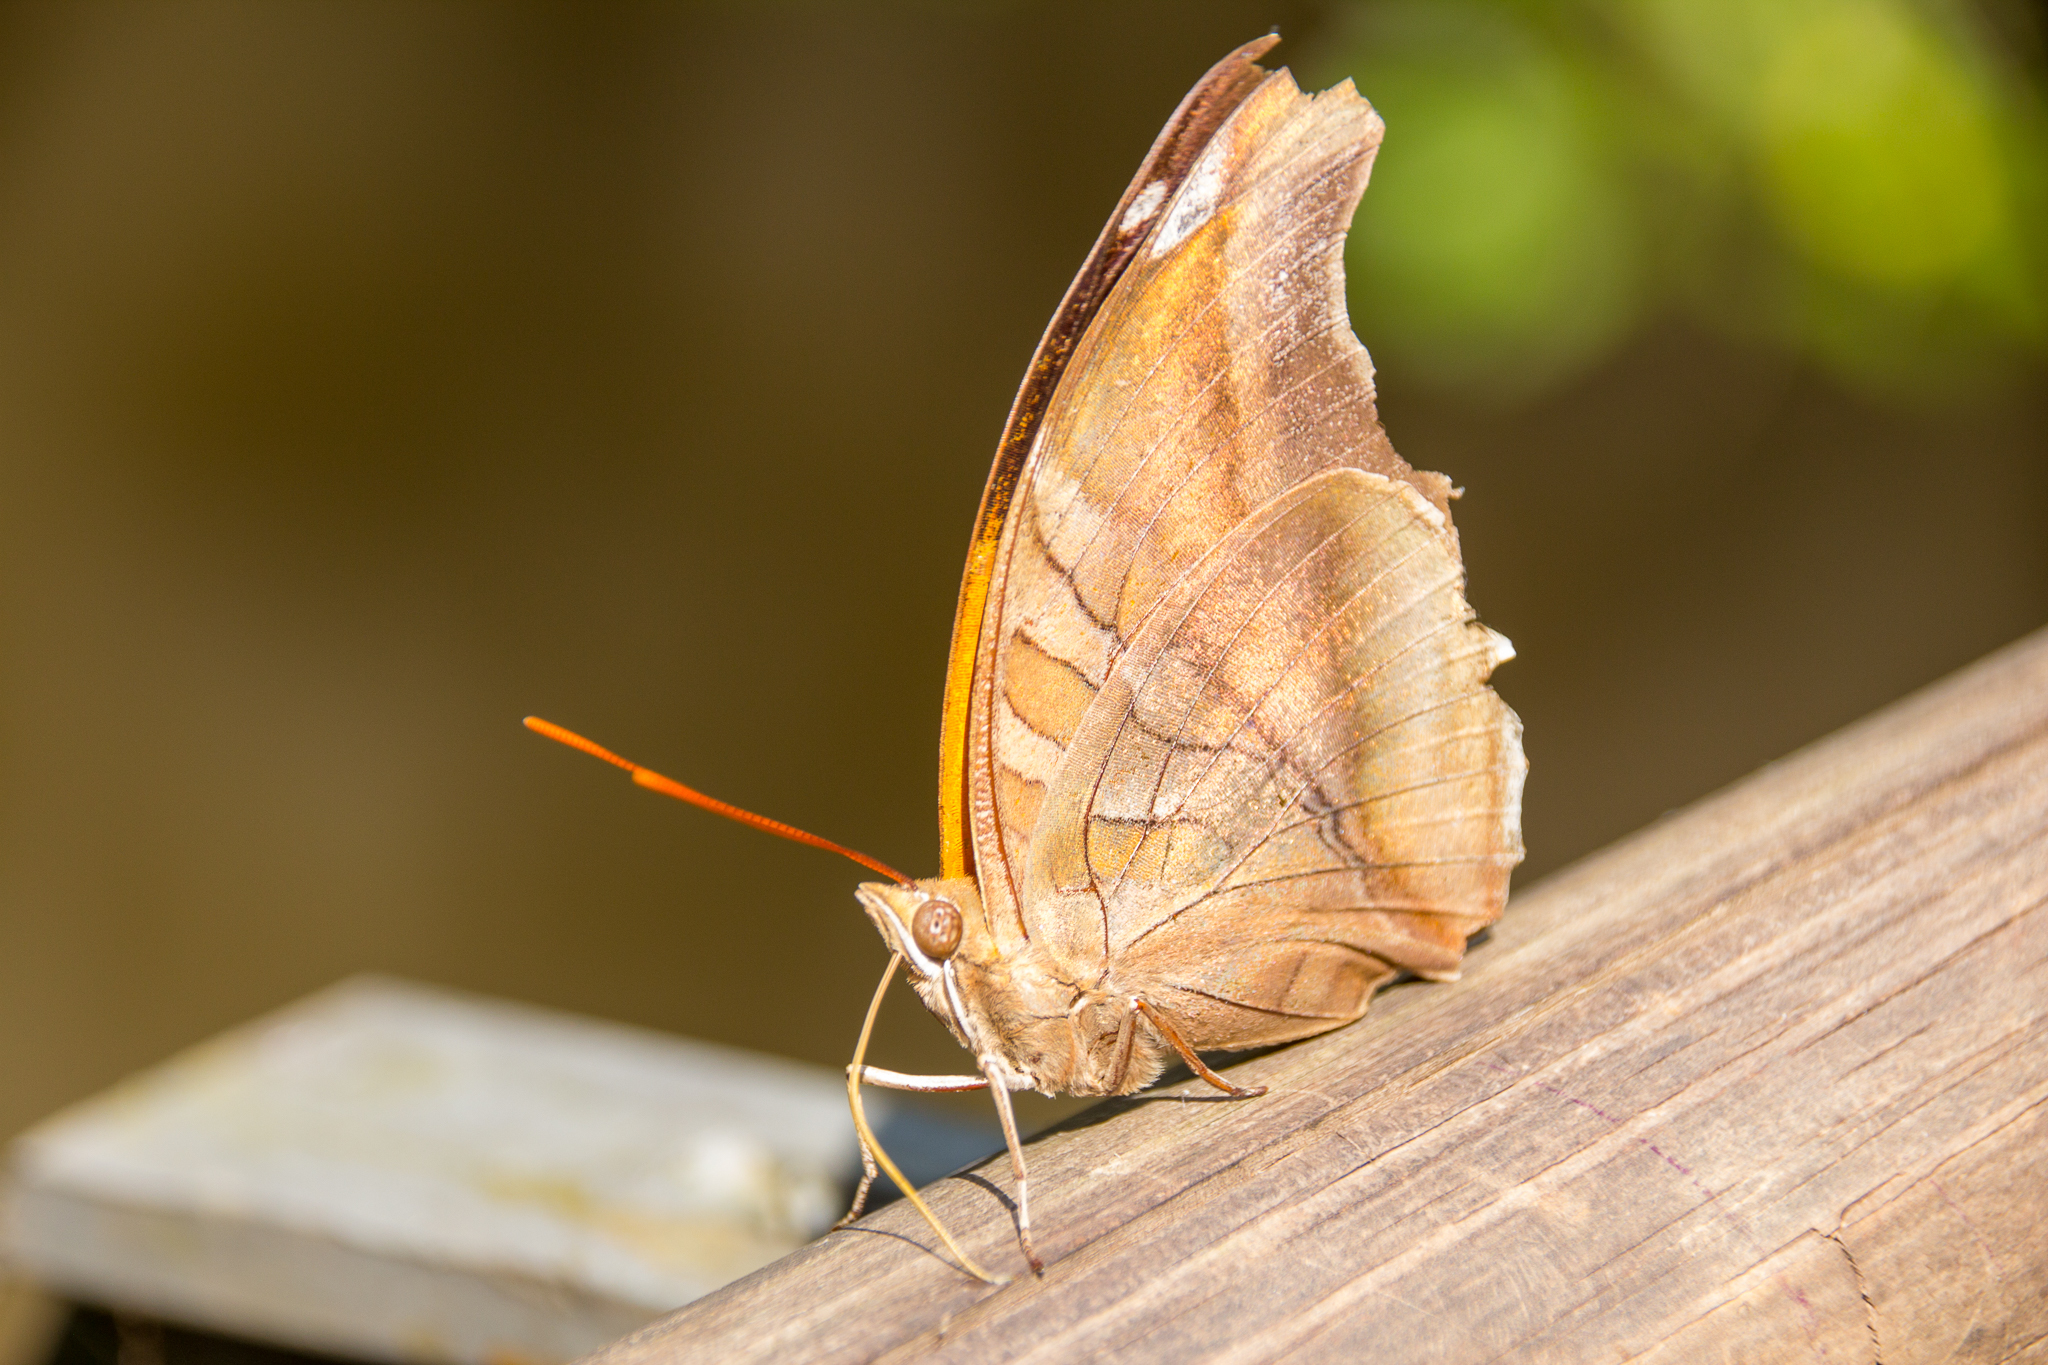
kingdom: Animalia
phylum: Arthropoda
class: Insecta
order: Lepidoptera
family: Nymphalidae
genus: Historis
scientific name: Historis odius
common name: Orion cecropian
